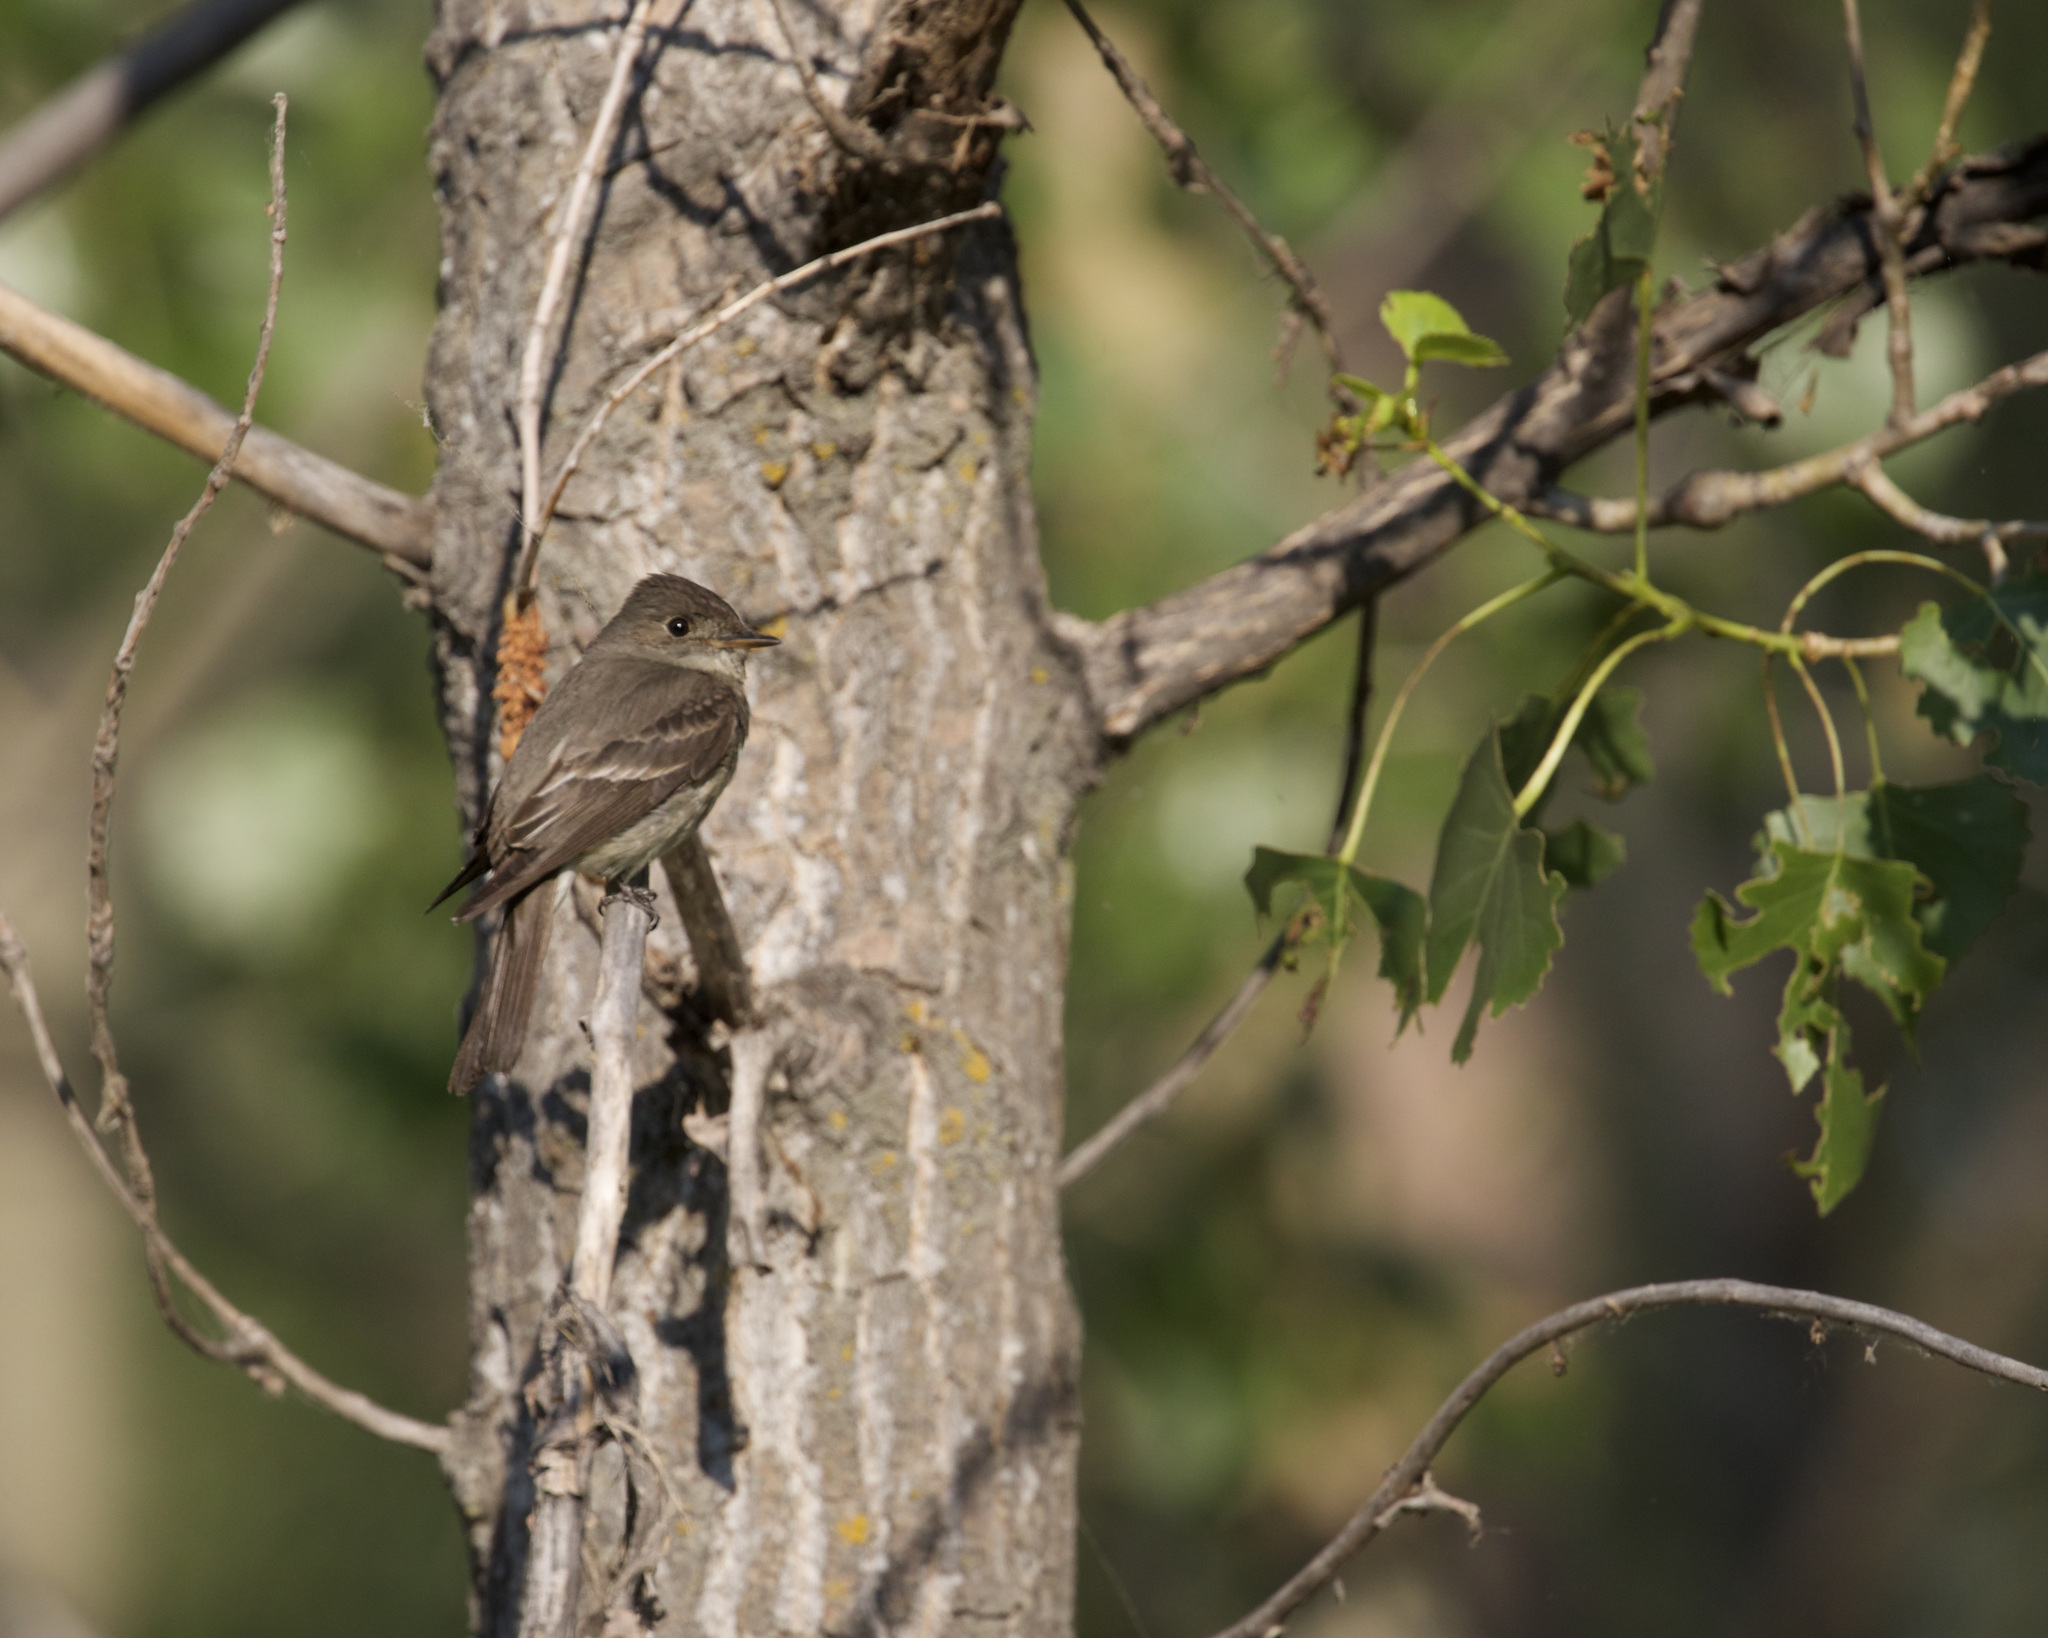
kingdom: Animalia
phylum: Chordata
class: Aves
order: Passeriformes
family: Tyrannidae
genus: Contopus
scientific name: Contopus sordidulus
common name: Western wood-pewee
